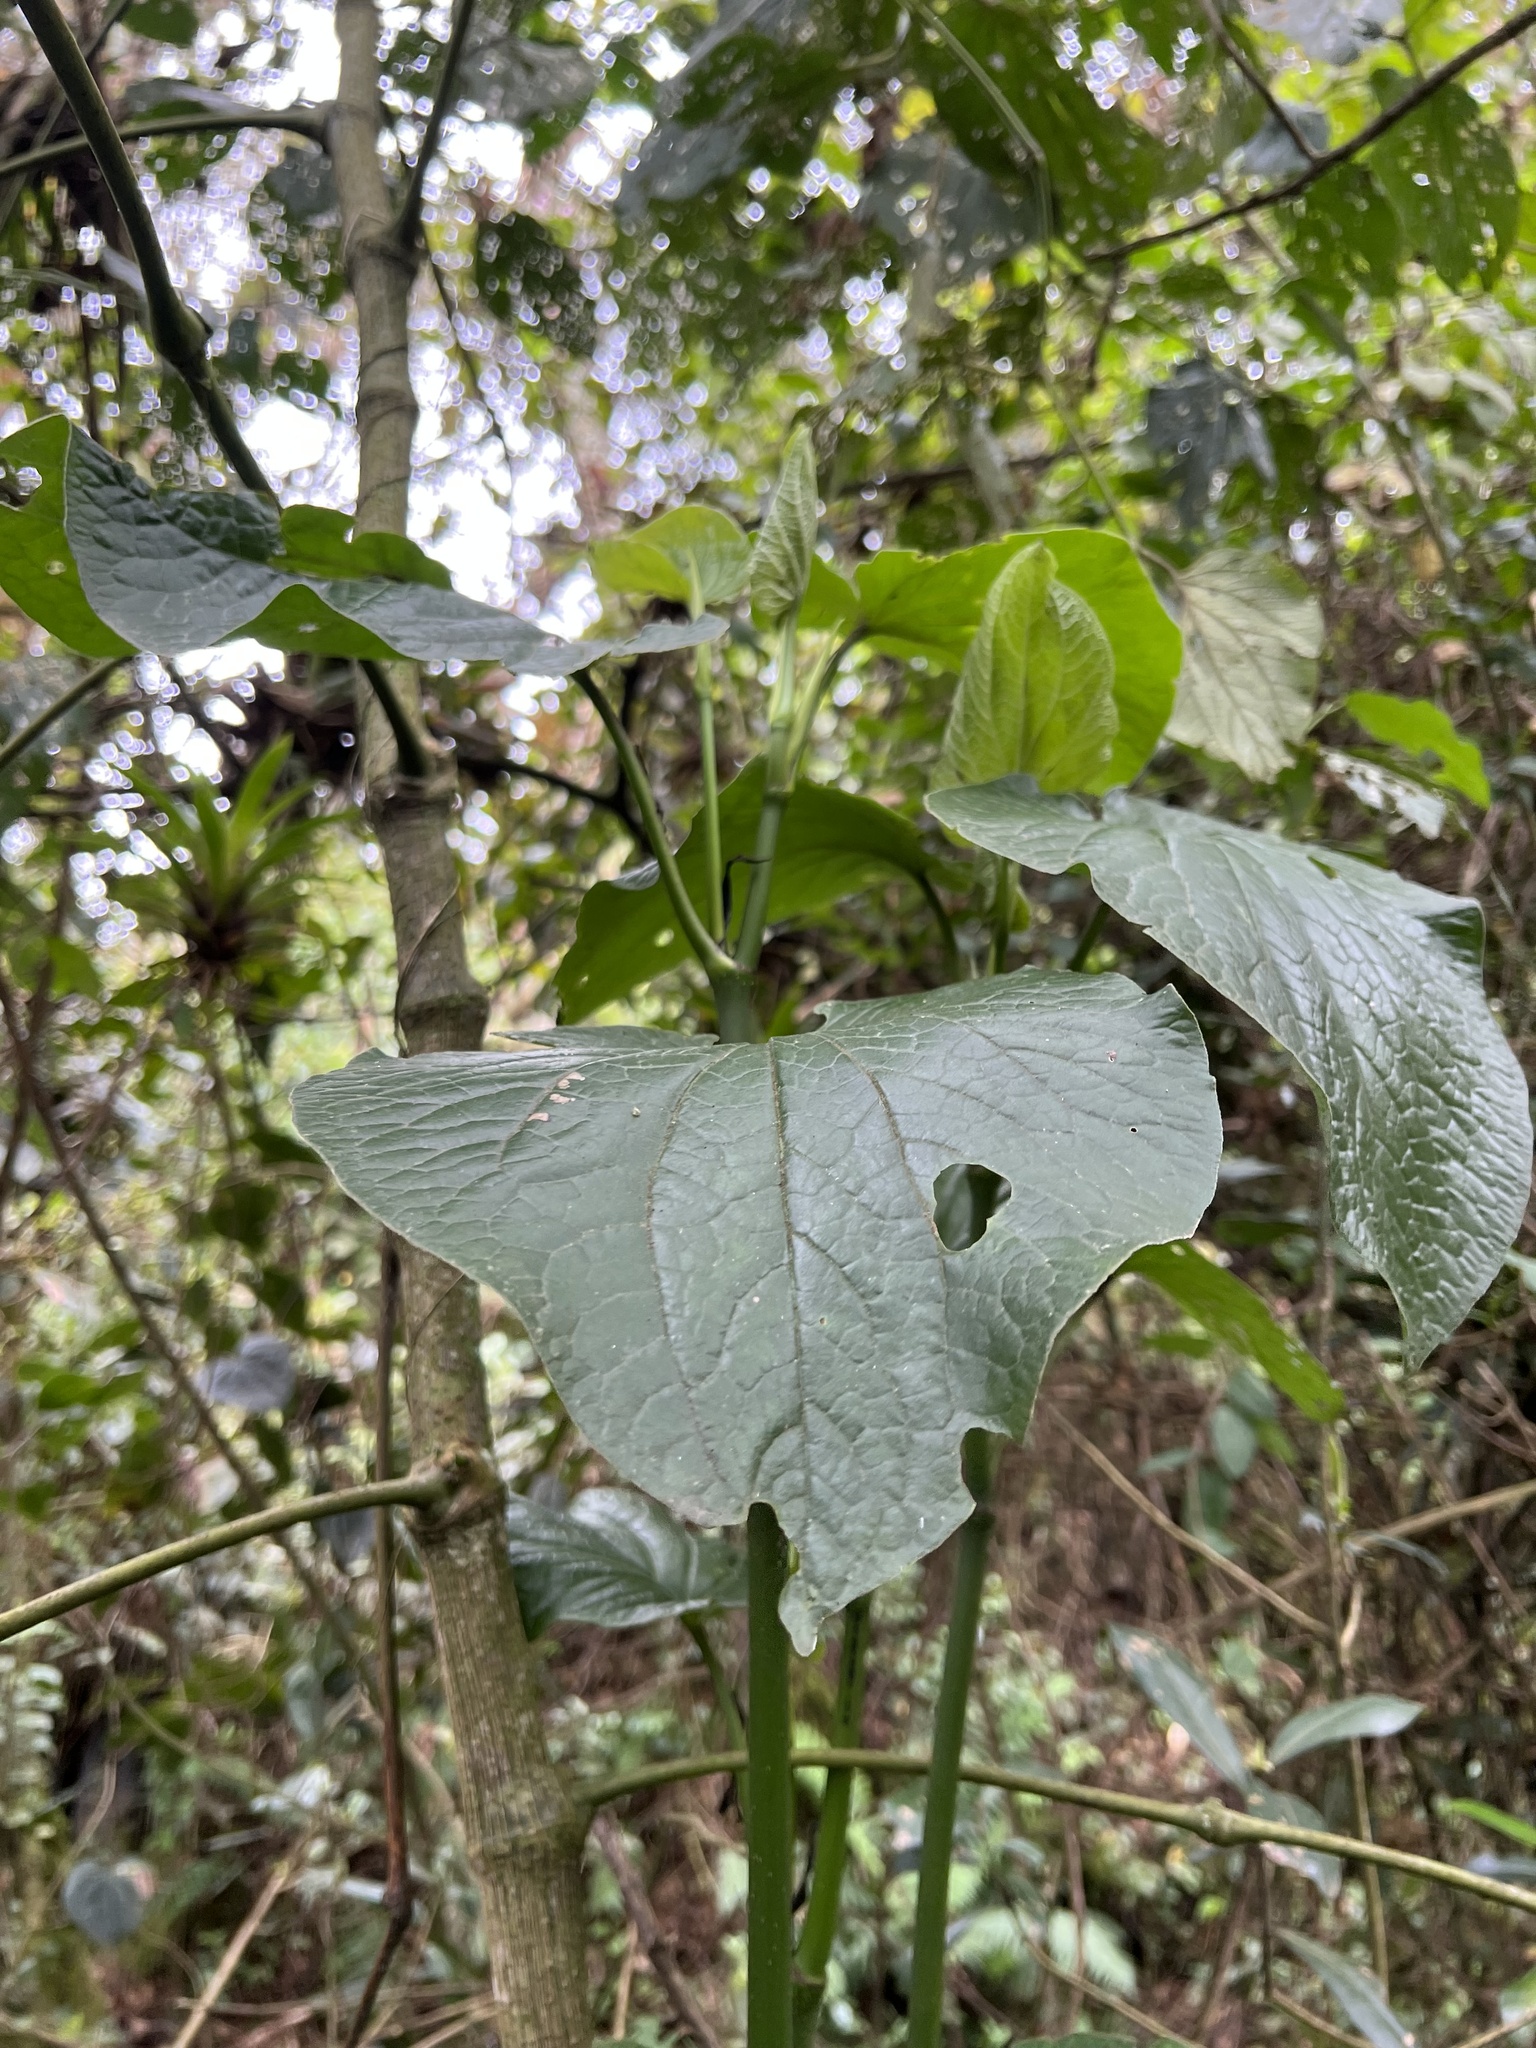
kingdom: Plantae
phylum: Tracheophyta
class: Magnoliopsida
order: Piperales
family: Piperaceae
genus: Piper
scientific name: Piper barbatum
